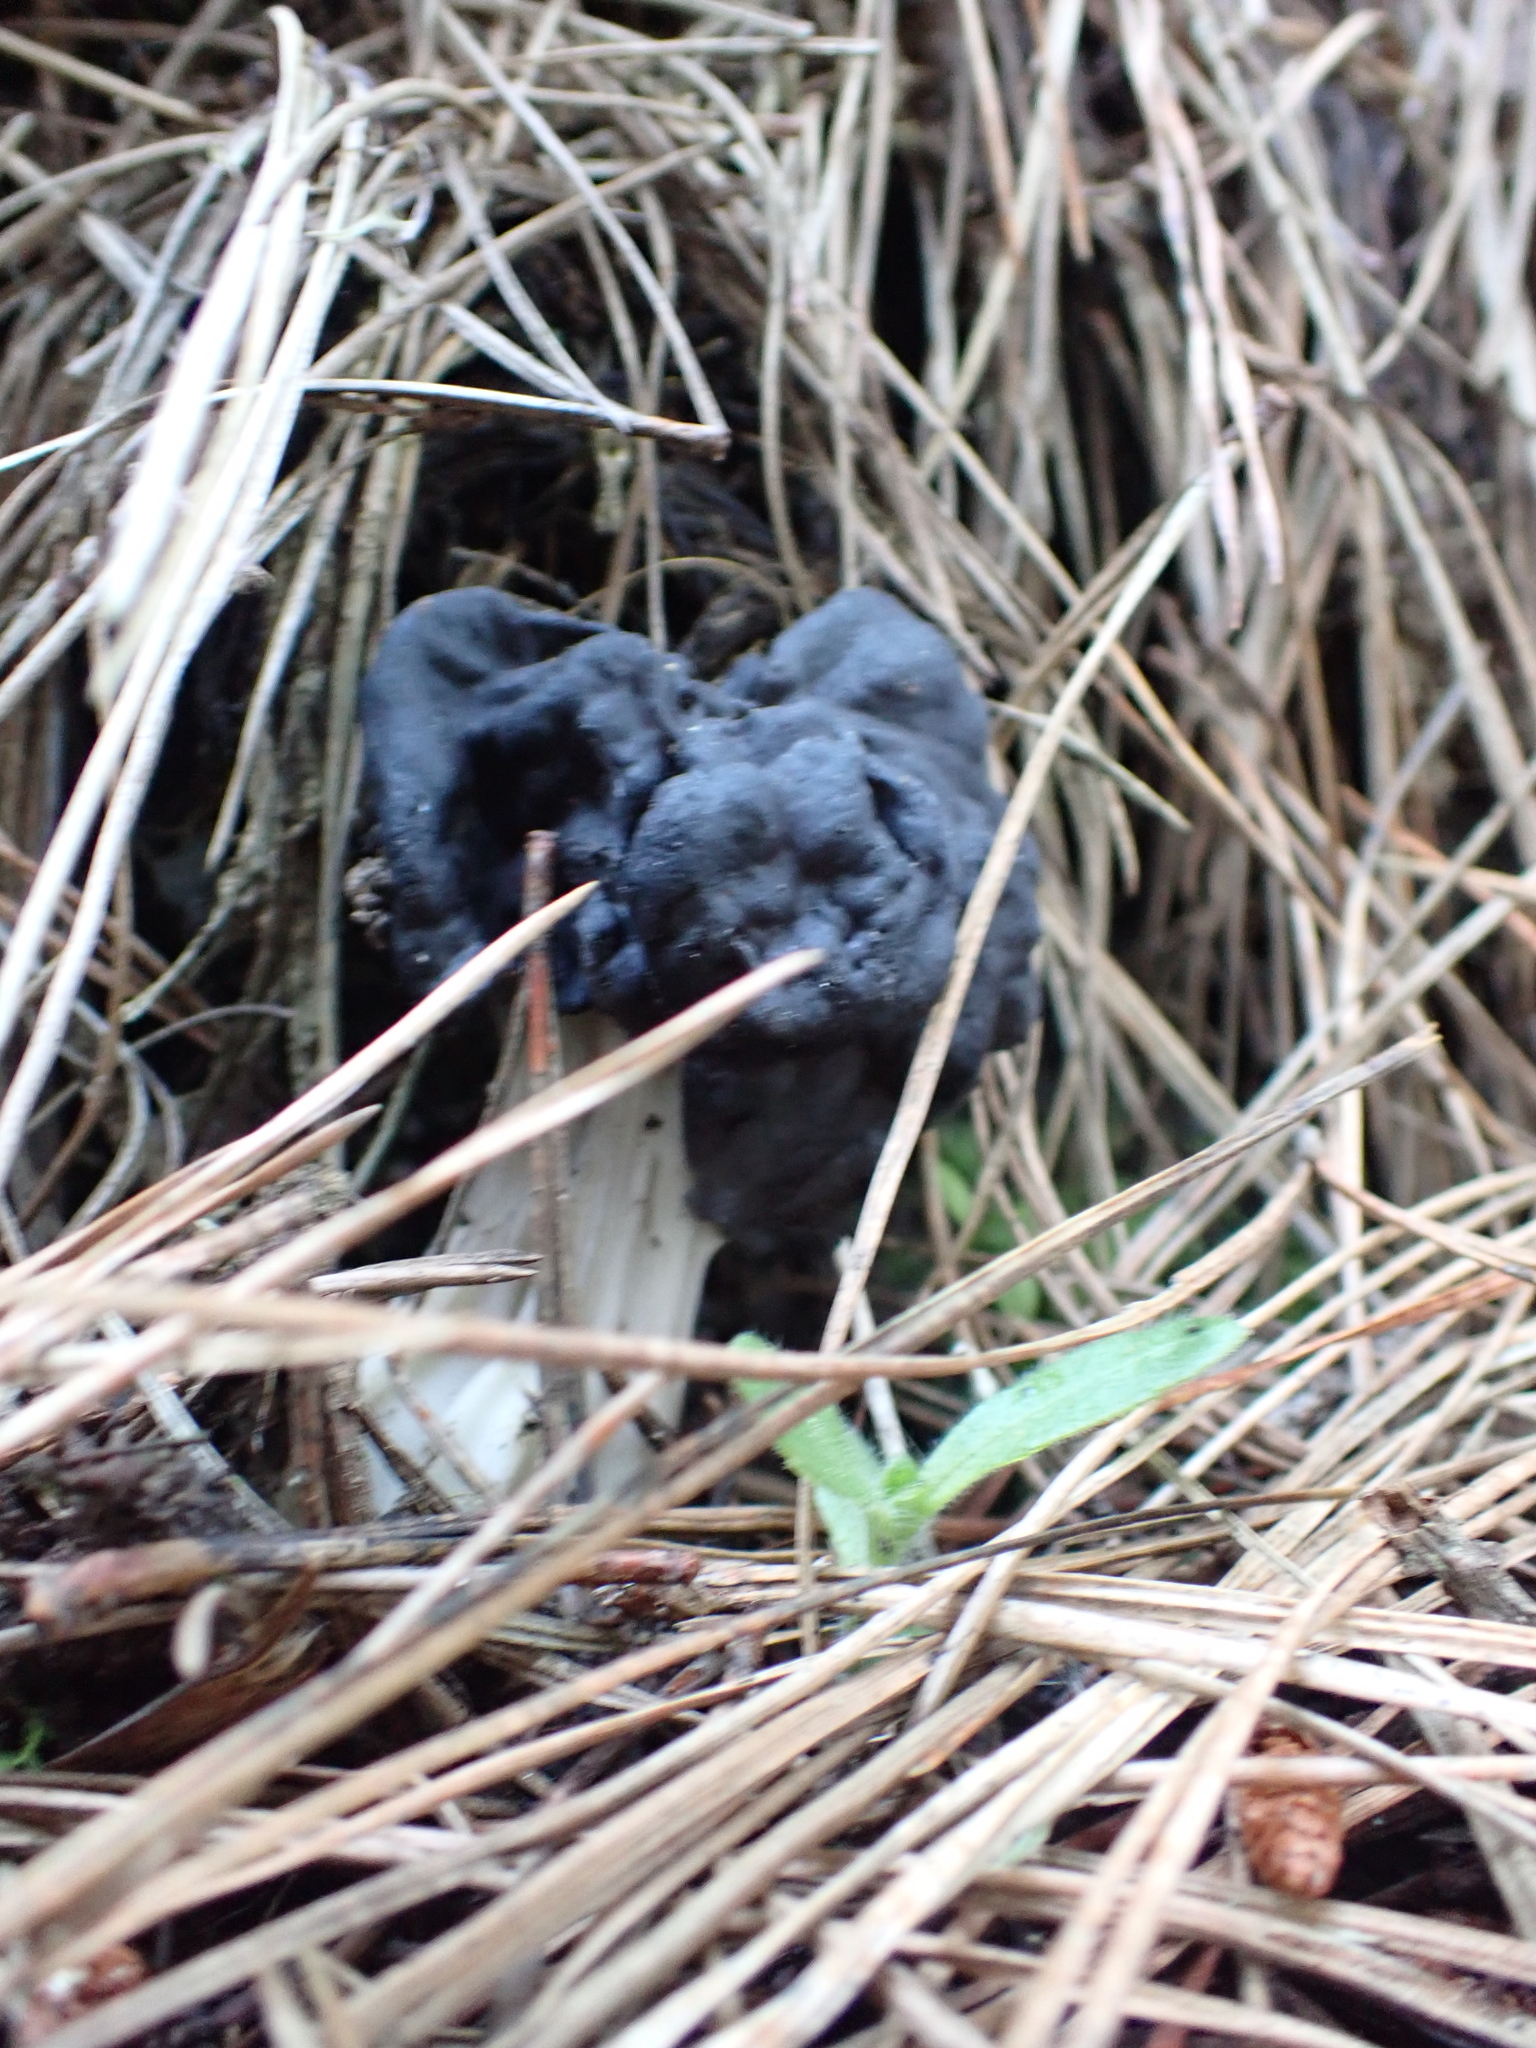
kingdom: Fungi
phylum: Ascomycota
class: Pezizomycetes
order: Pezizales
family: Helvellaceae
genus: Helvella
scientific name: Helvella vespertina
